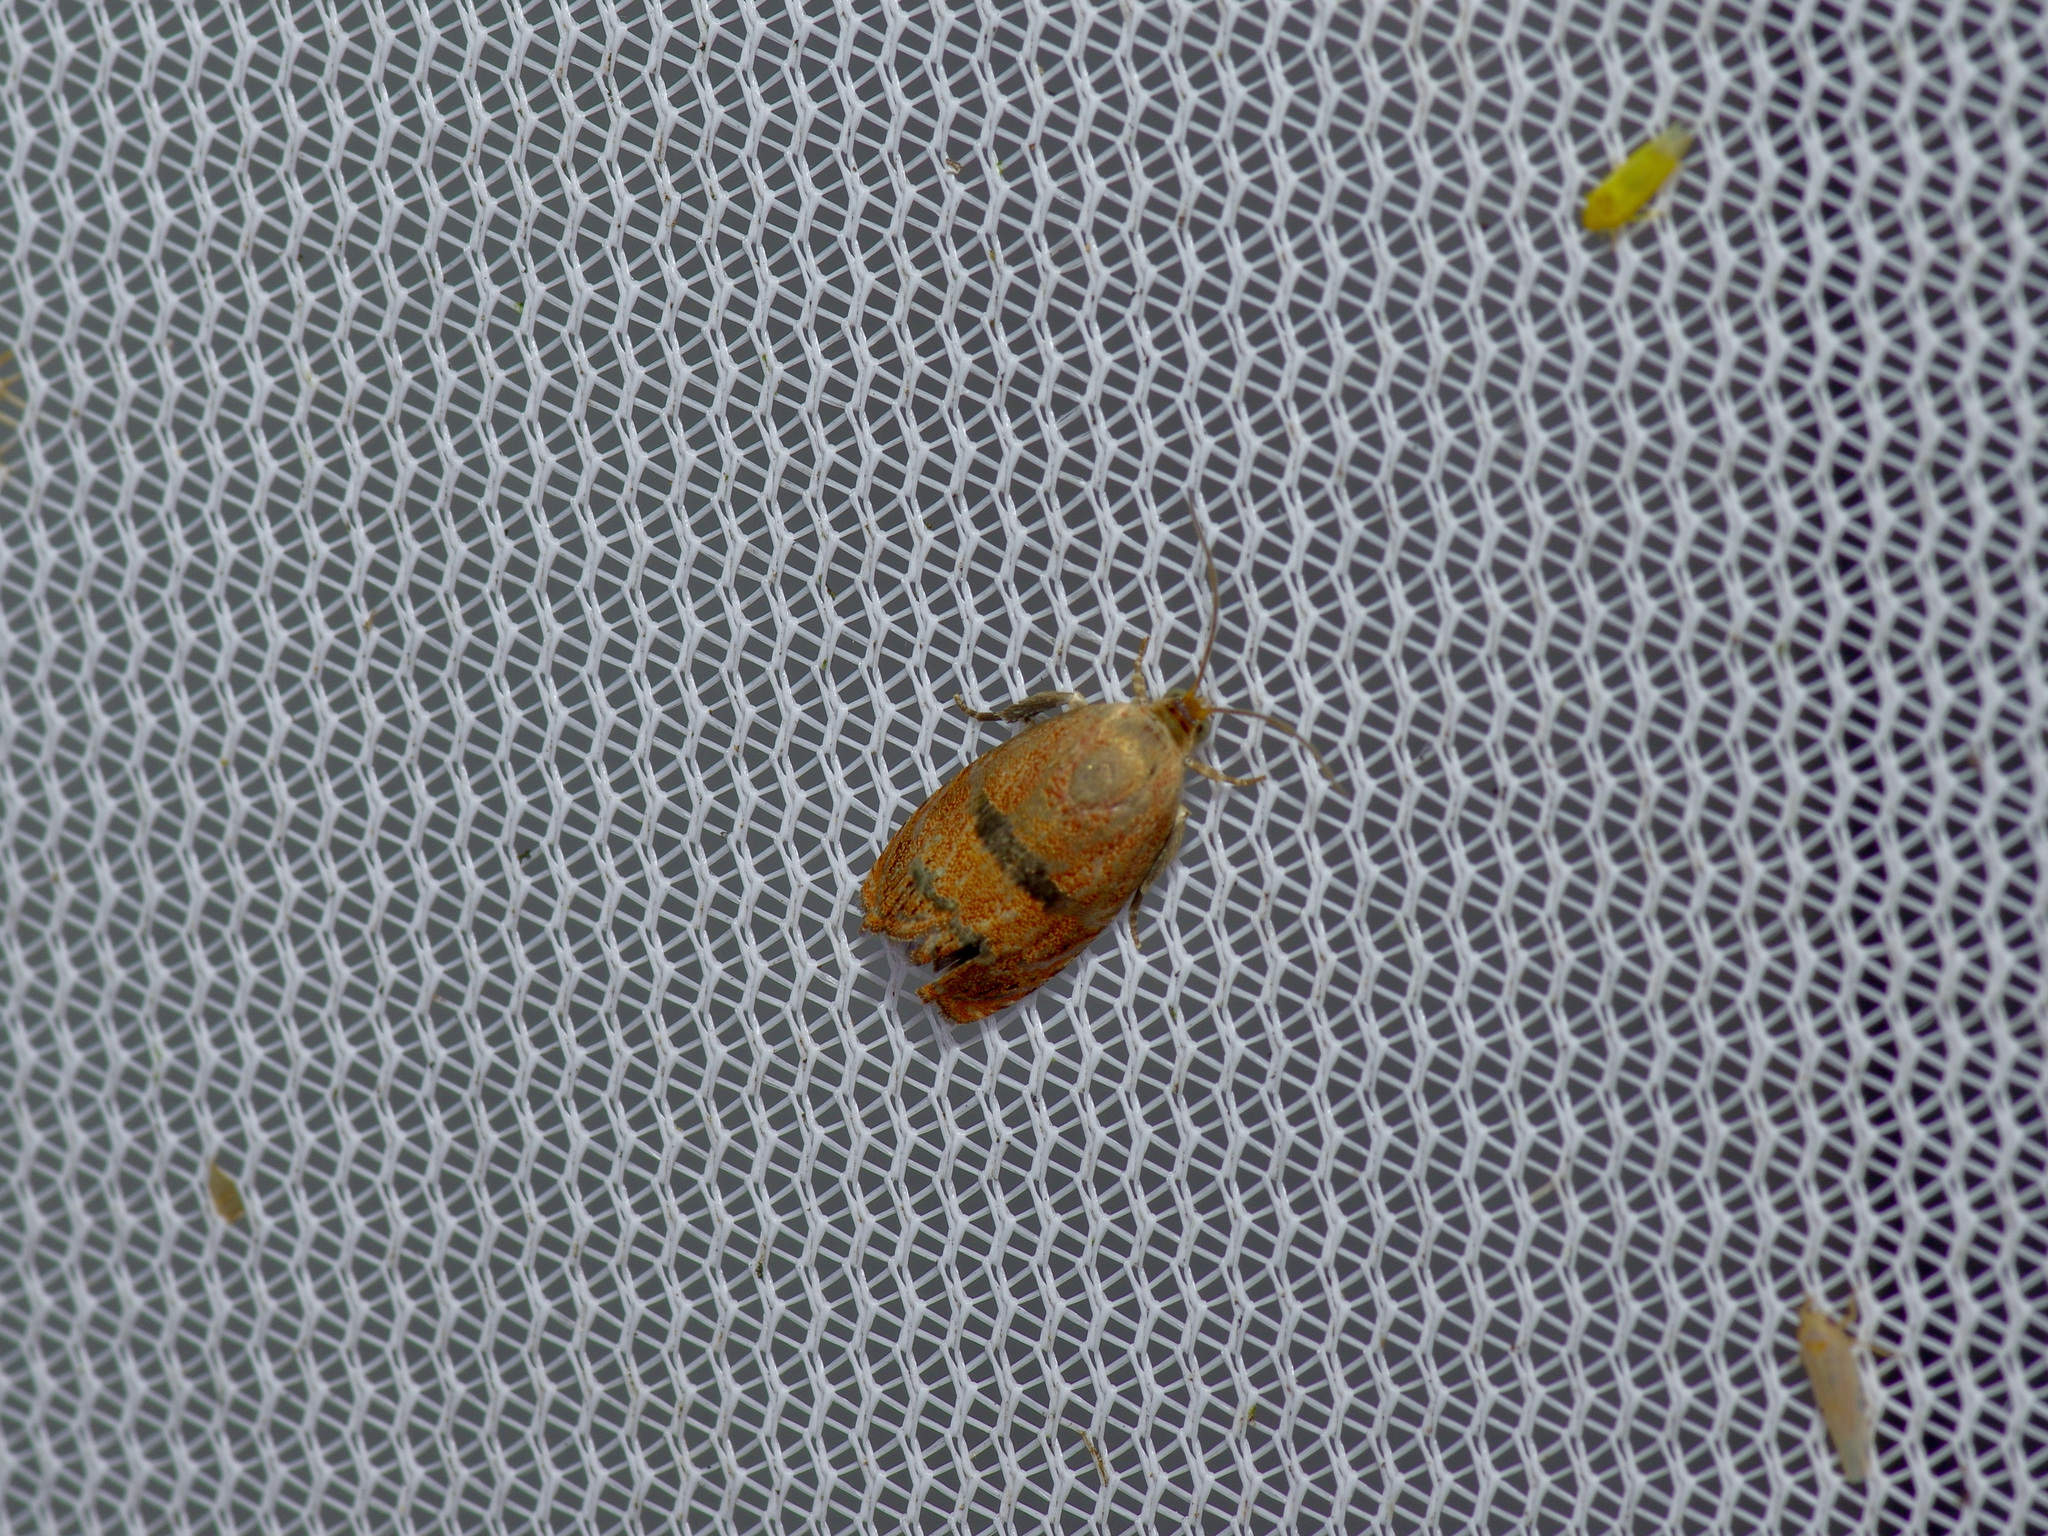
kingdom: Animalia
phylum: Arthropoda
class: Insecta
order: Lepidoptera
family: Tortricidae
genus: Cydia
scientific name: Cydia latiferreana
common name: Filbertworm moth
